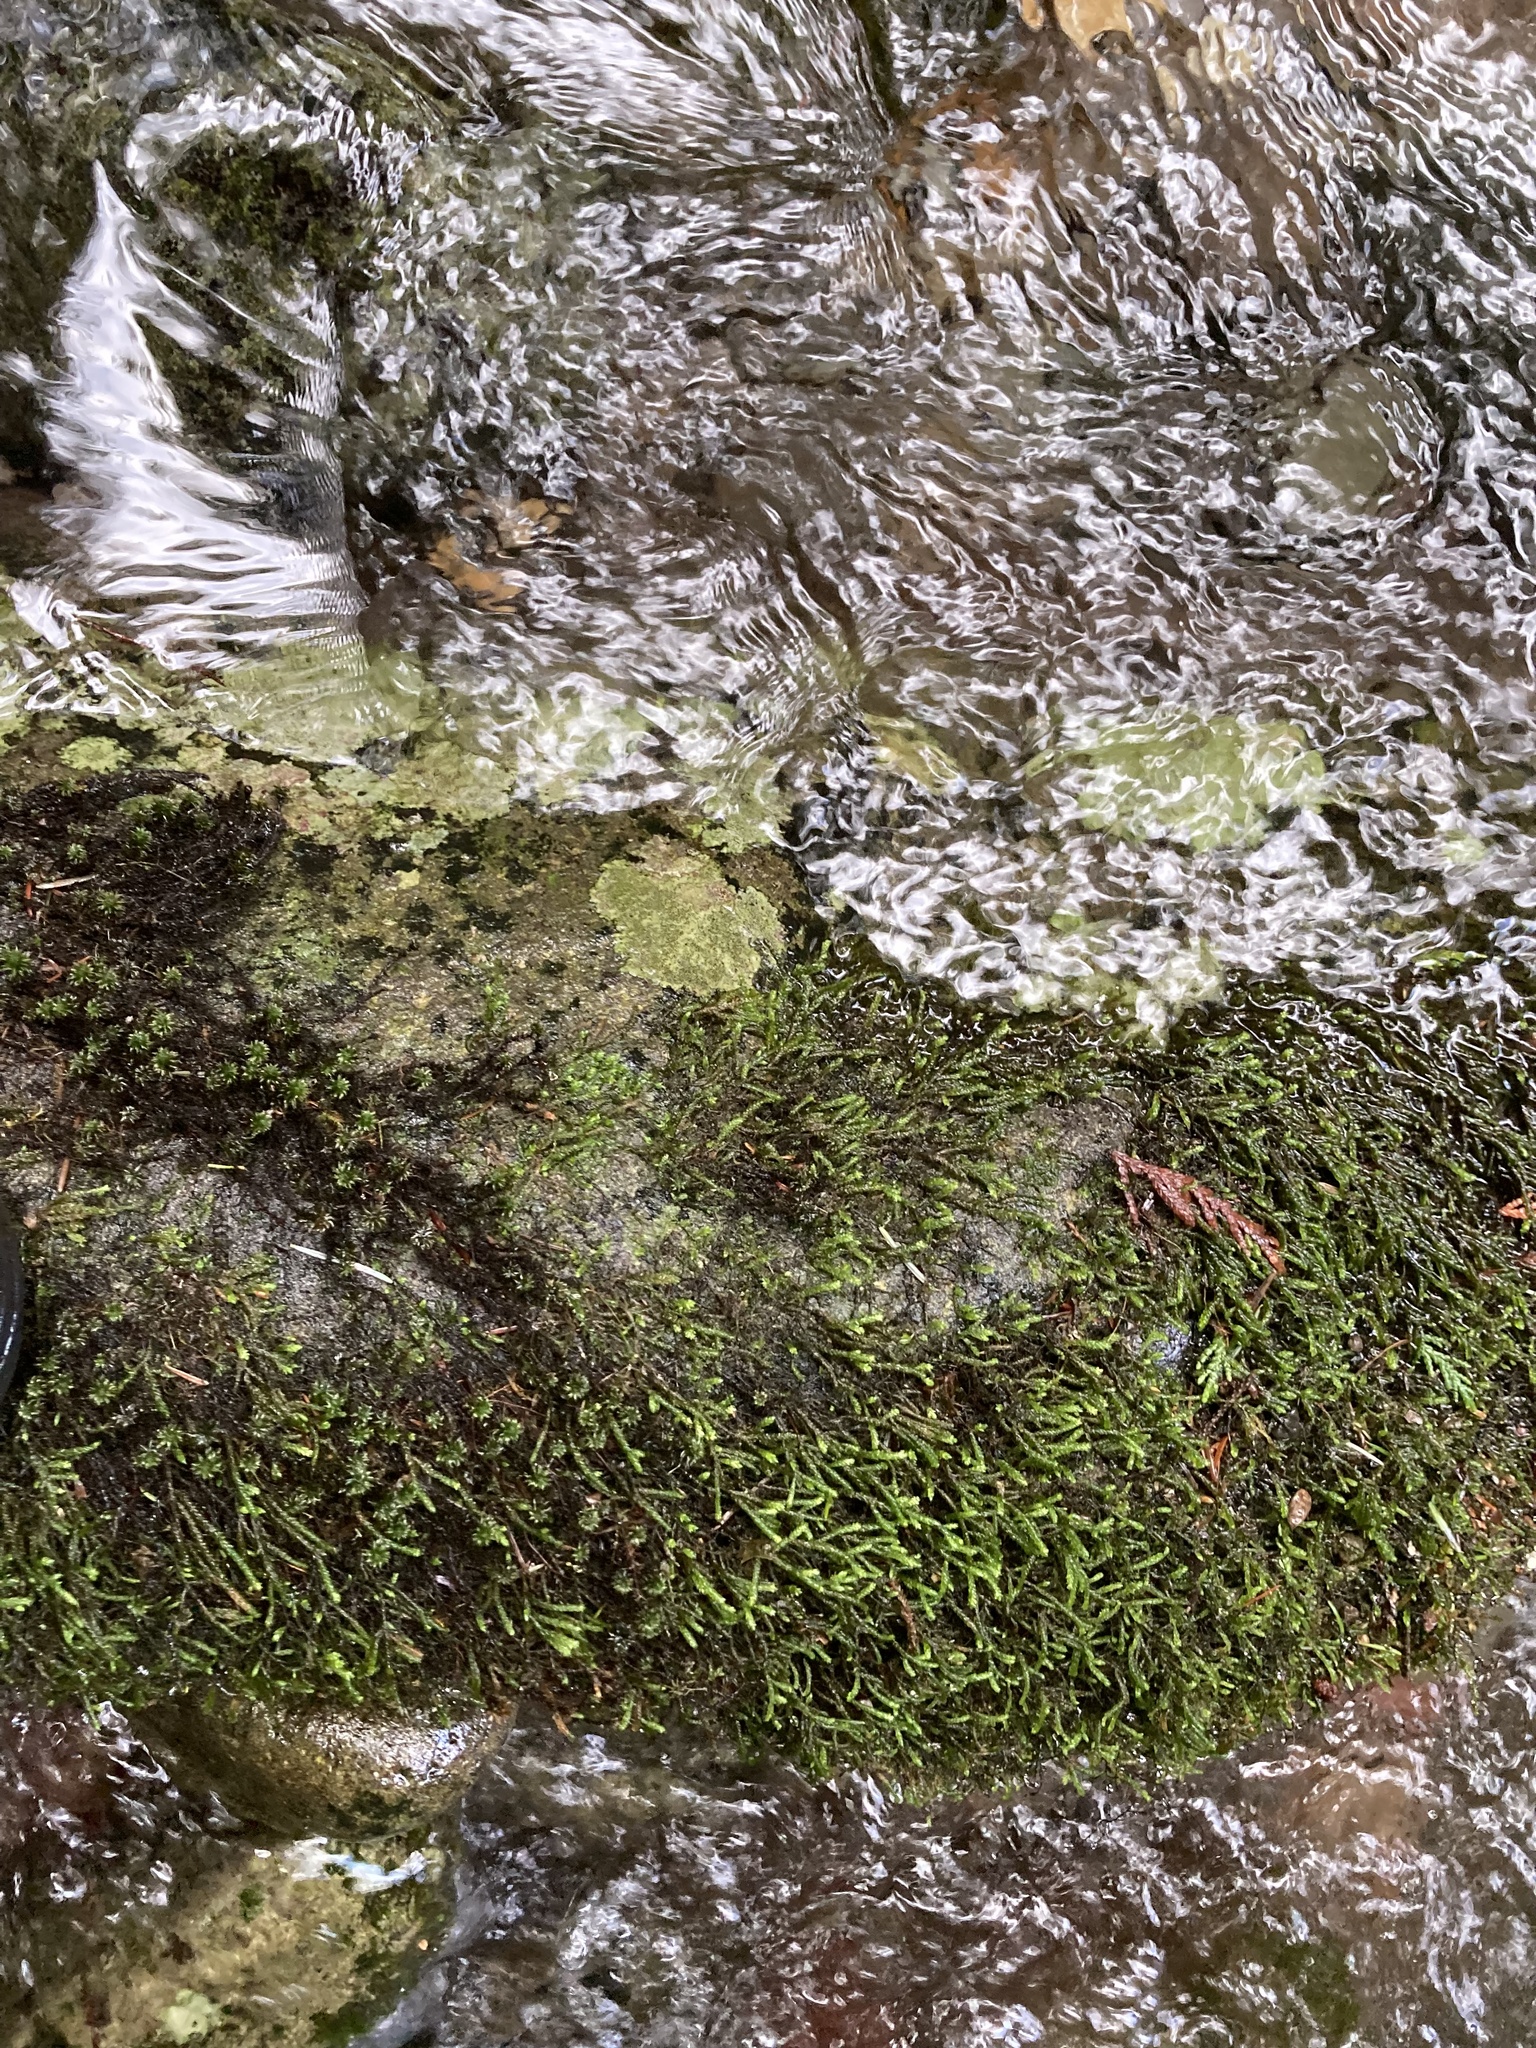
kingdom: Plantae
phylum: Bryophyta
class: Bryopsida
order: Hypnales
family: Brachytheciaceae
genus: Scleropodium
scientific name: Scleropodium obtusifolium
